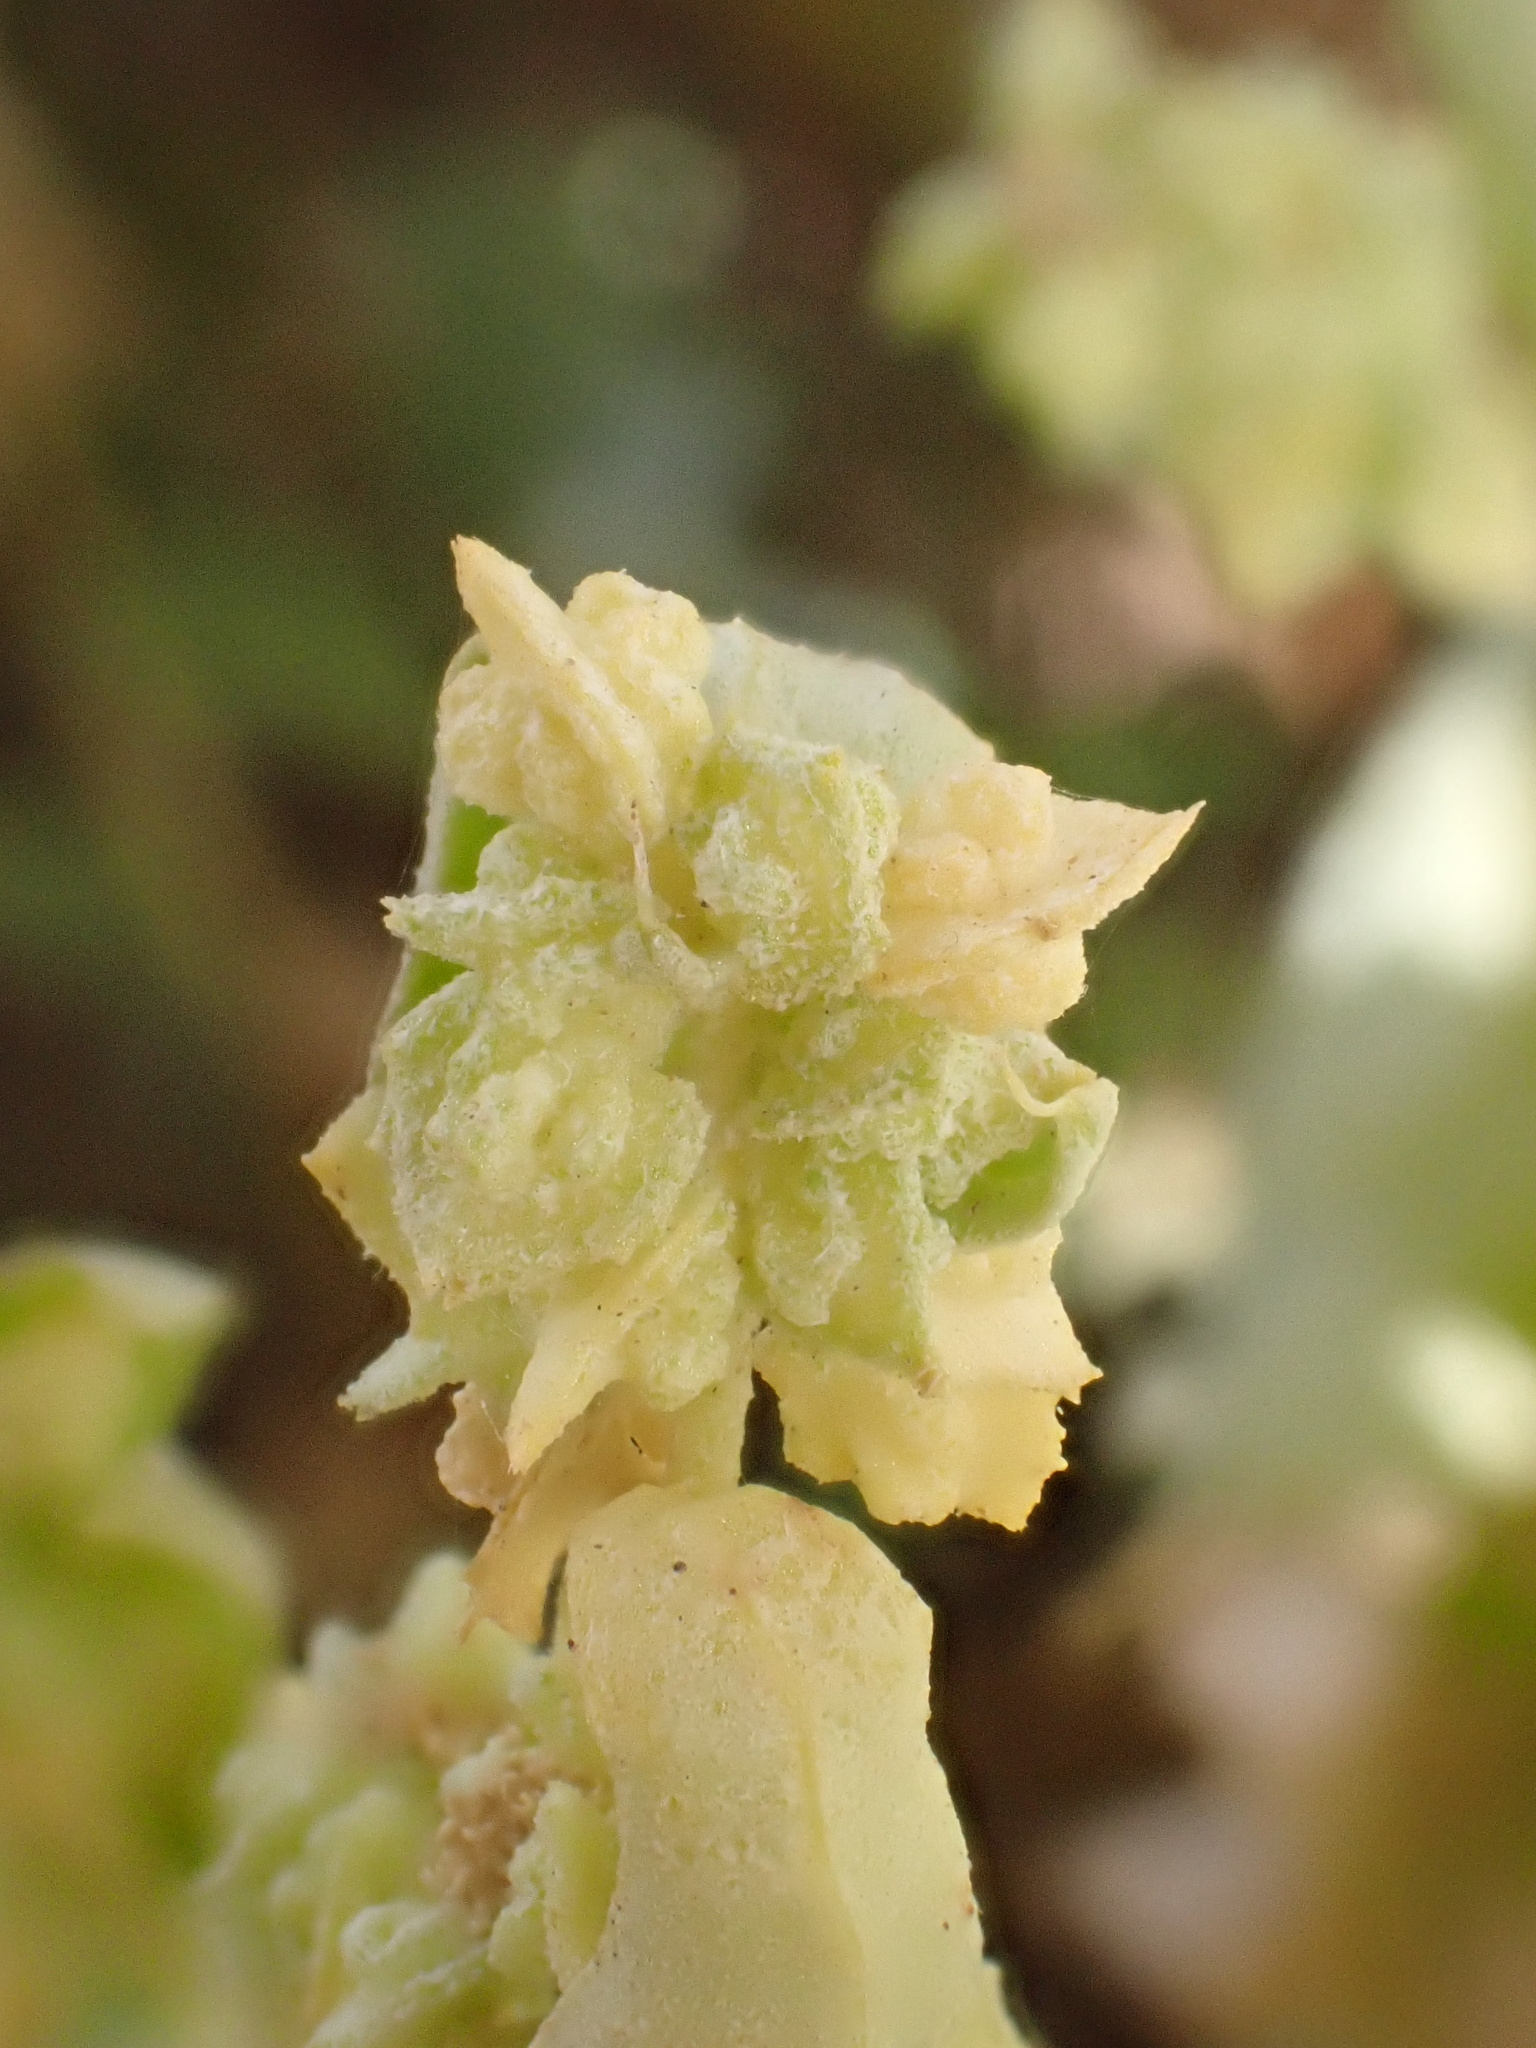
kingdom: Plantae
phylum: Tracheophyta
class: Magnoliopsida
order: Caryophyllales
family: Amaranthaceae
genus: Atriplex
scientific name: Atriplex suberecta
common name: Australian orache
